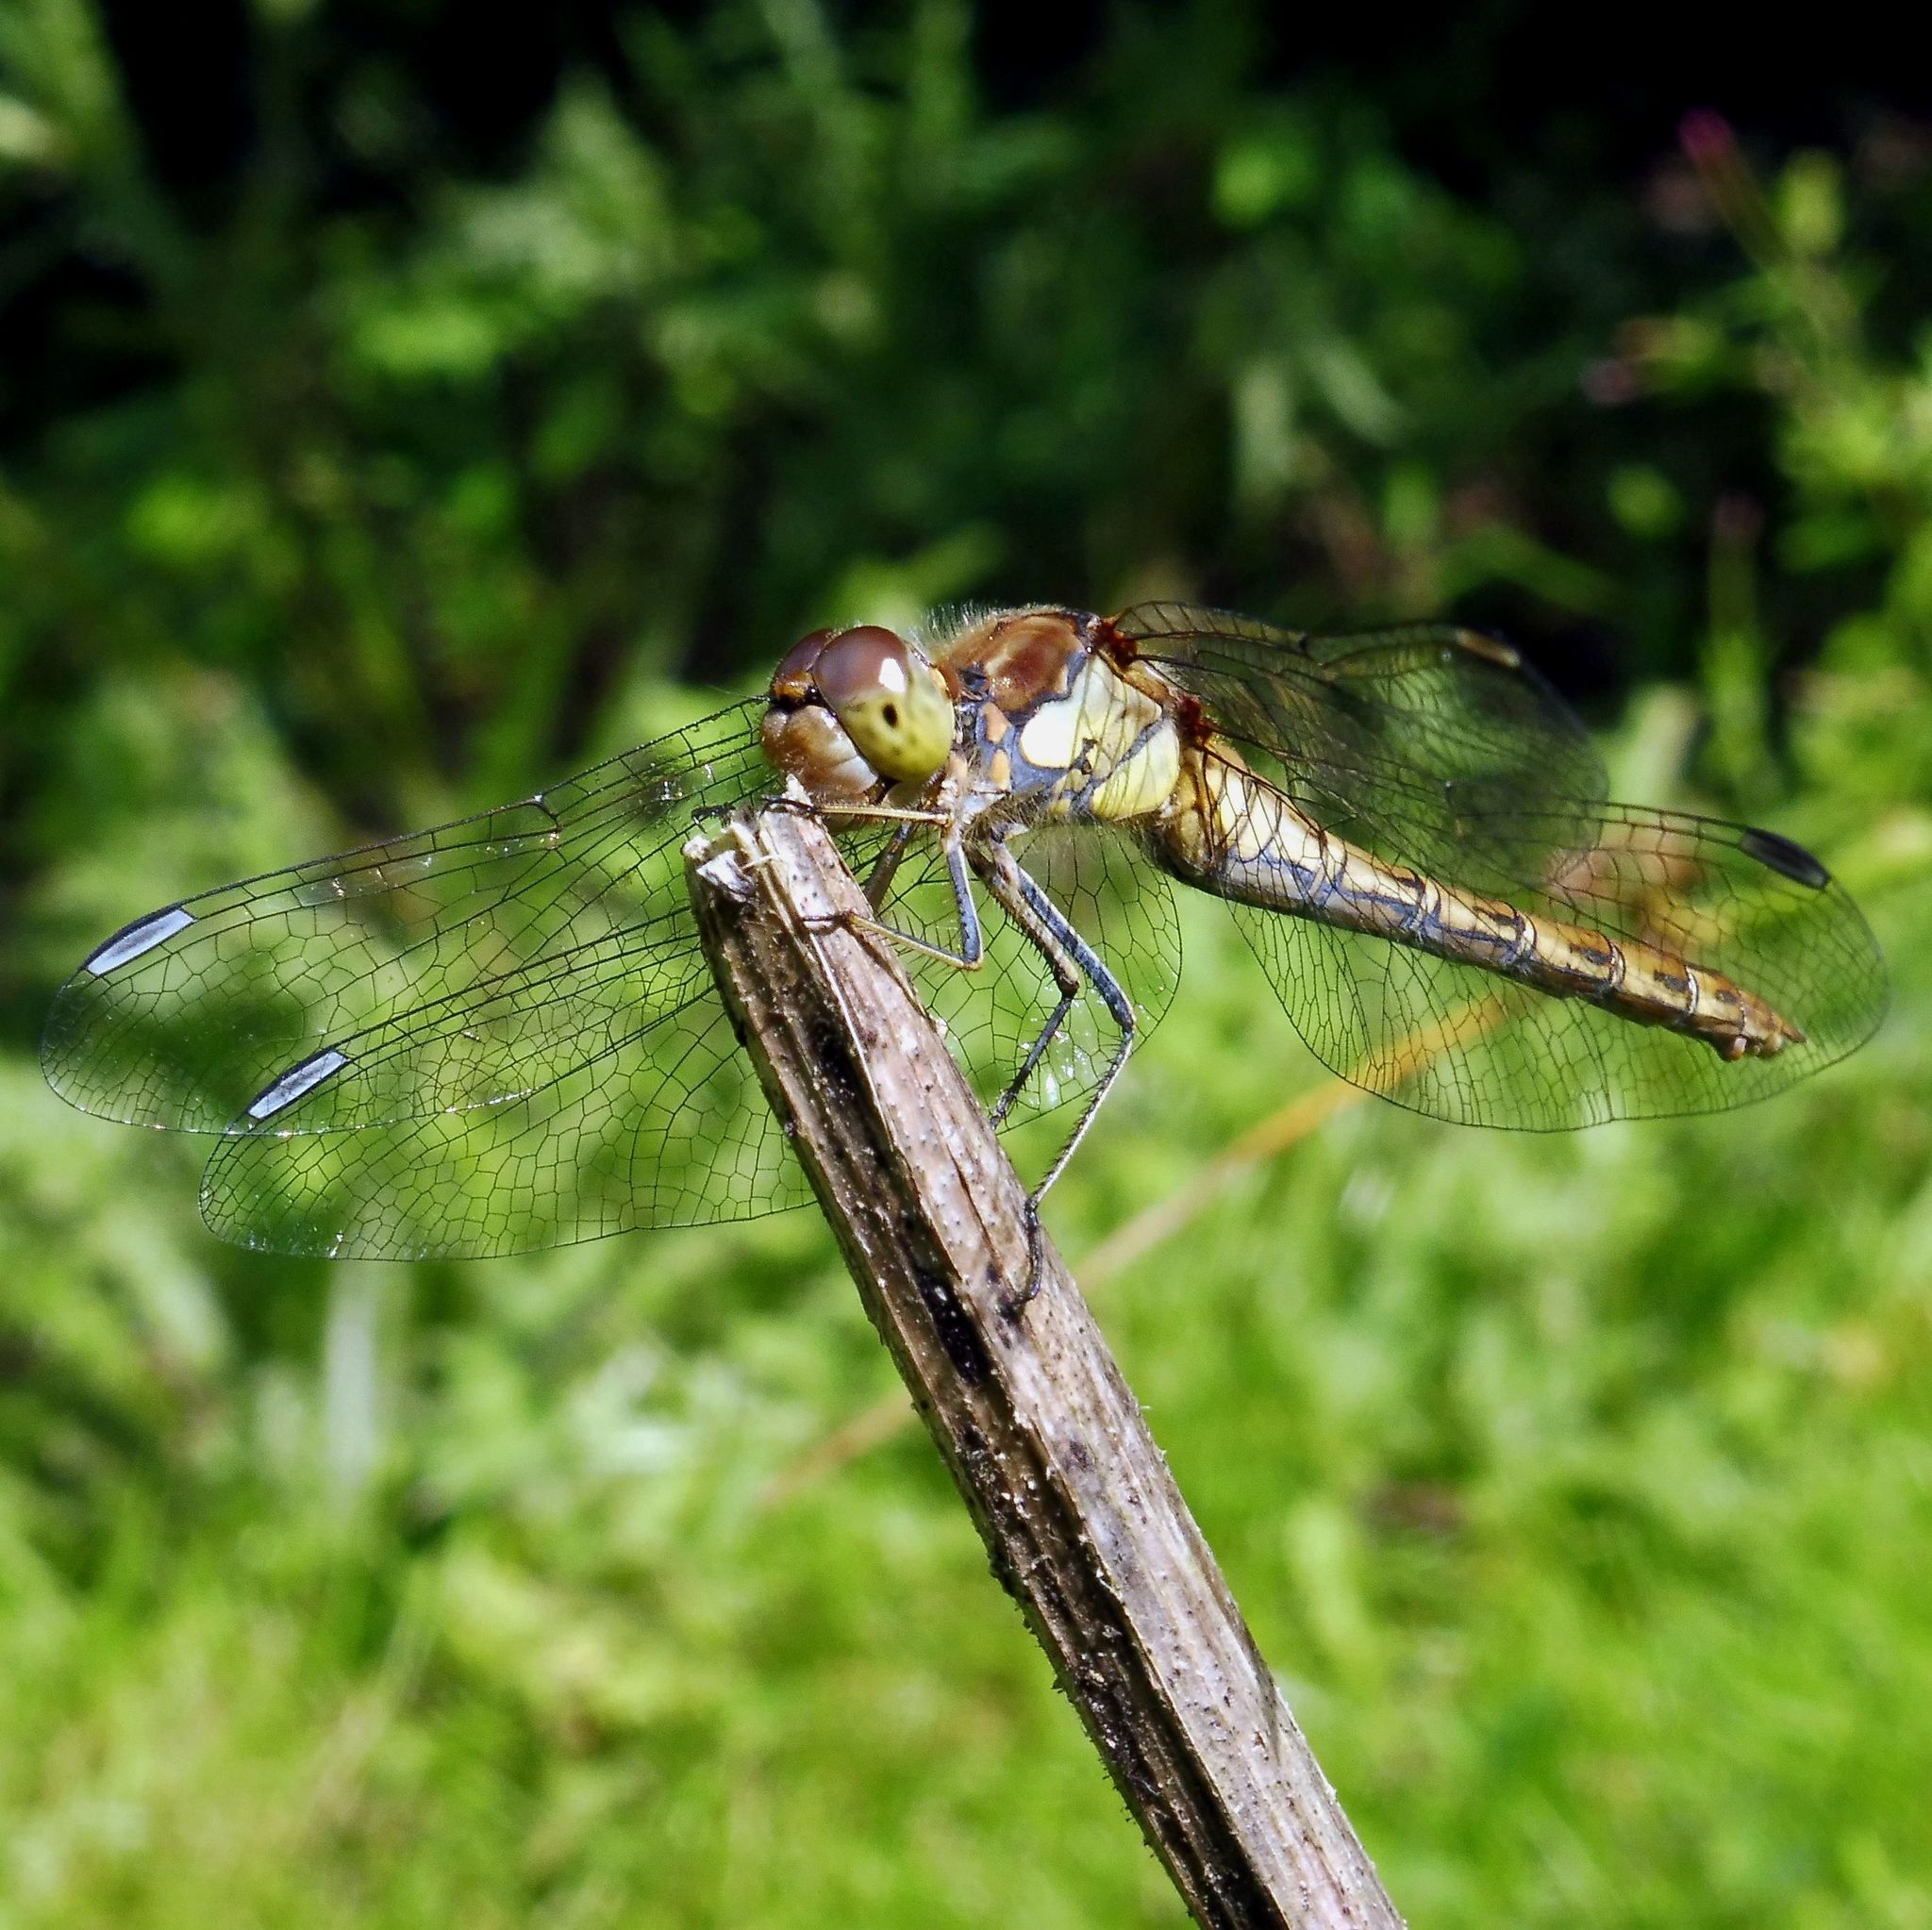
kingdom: Animalia
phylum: Arthropoda
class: Insecta
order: Odonata
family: Libellulidae
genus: Sympetrum
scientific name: Sympetrum striolatum
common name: Common darter
